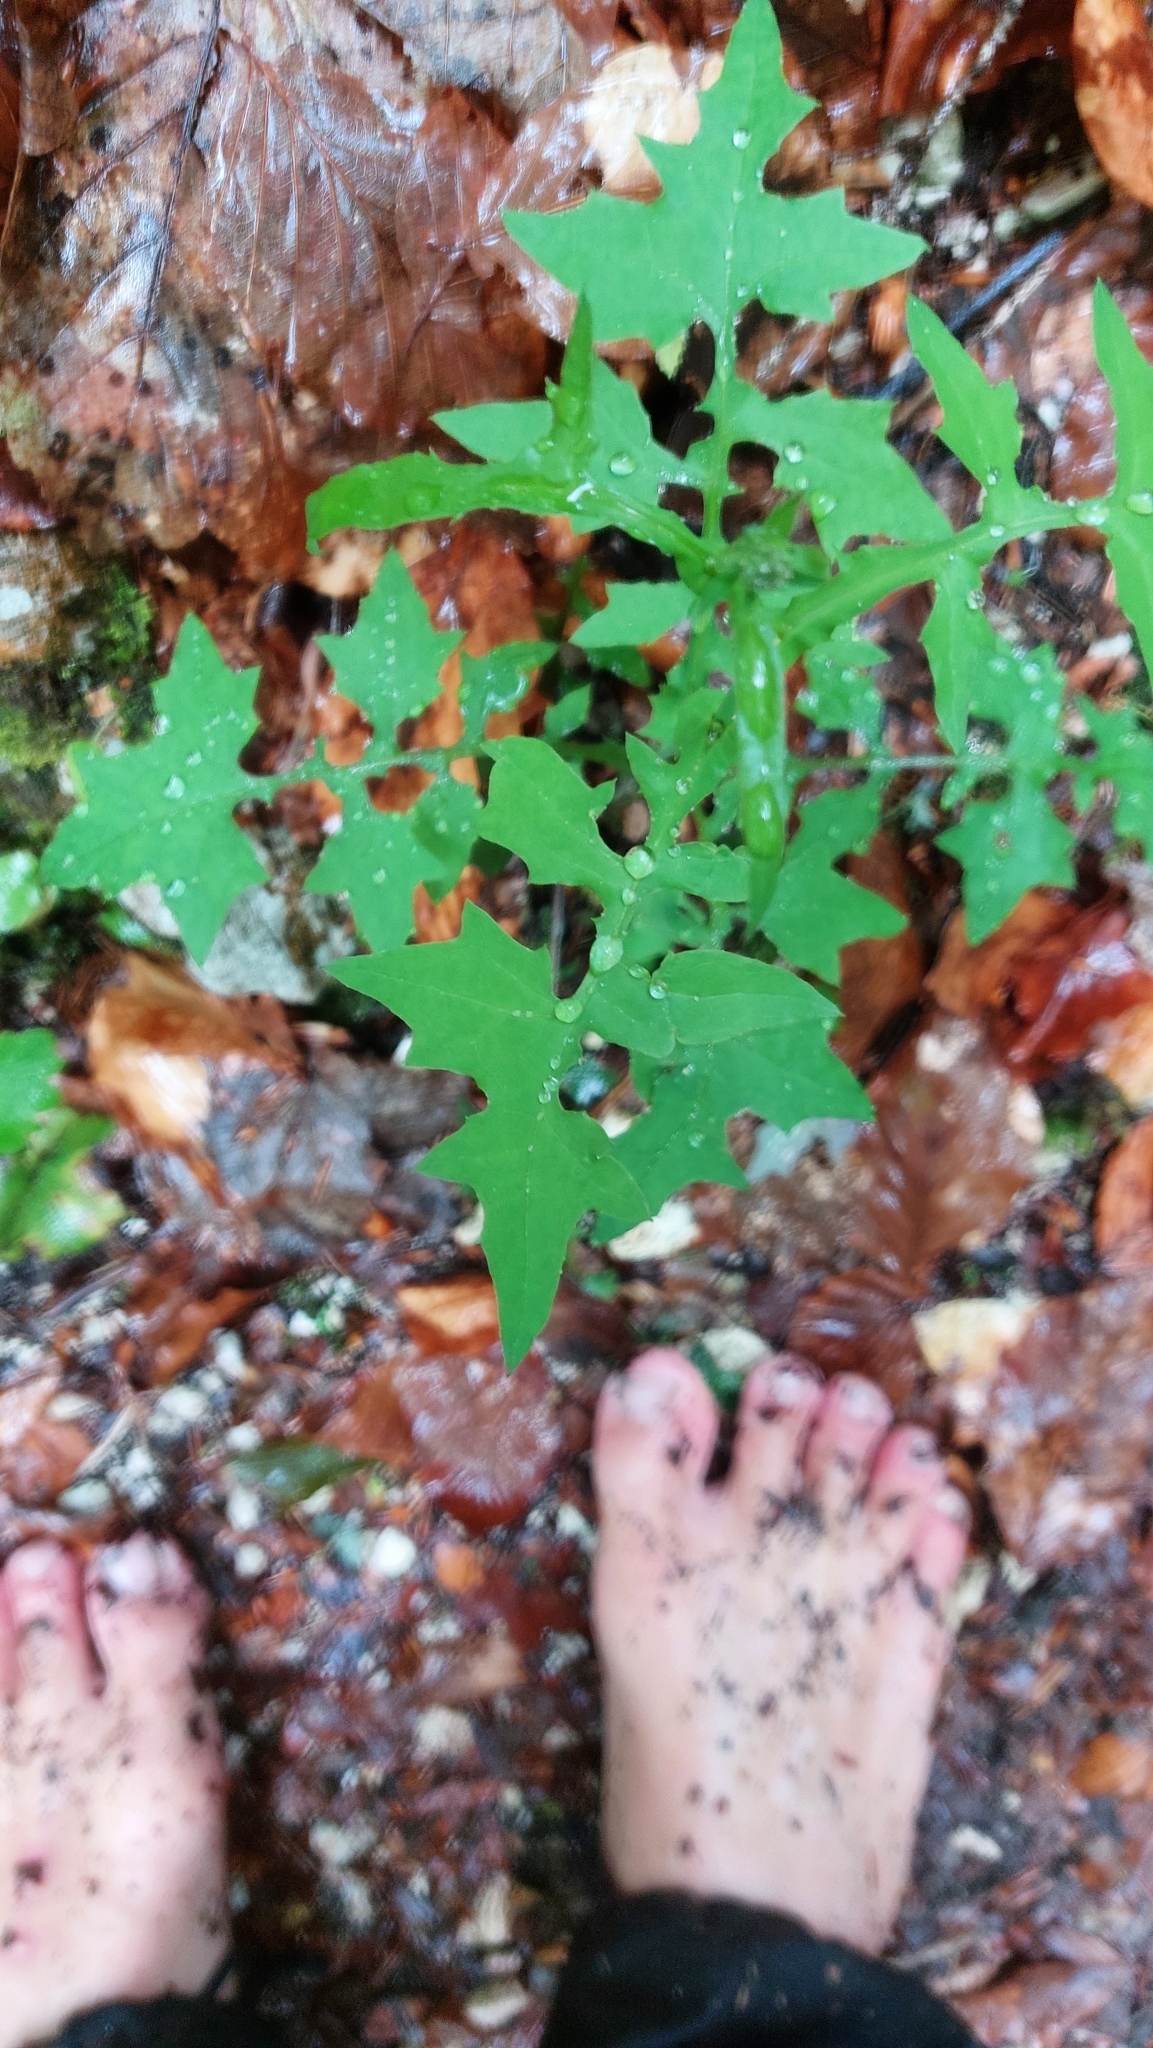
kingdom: Plantae
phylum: Tracheophyta
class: Magnoliopsida
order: Asterales
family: Asteraceae
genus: Mycelis
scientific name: Mycelis muralis
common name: Wall lettuce
